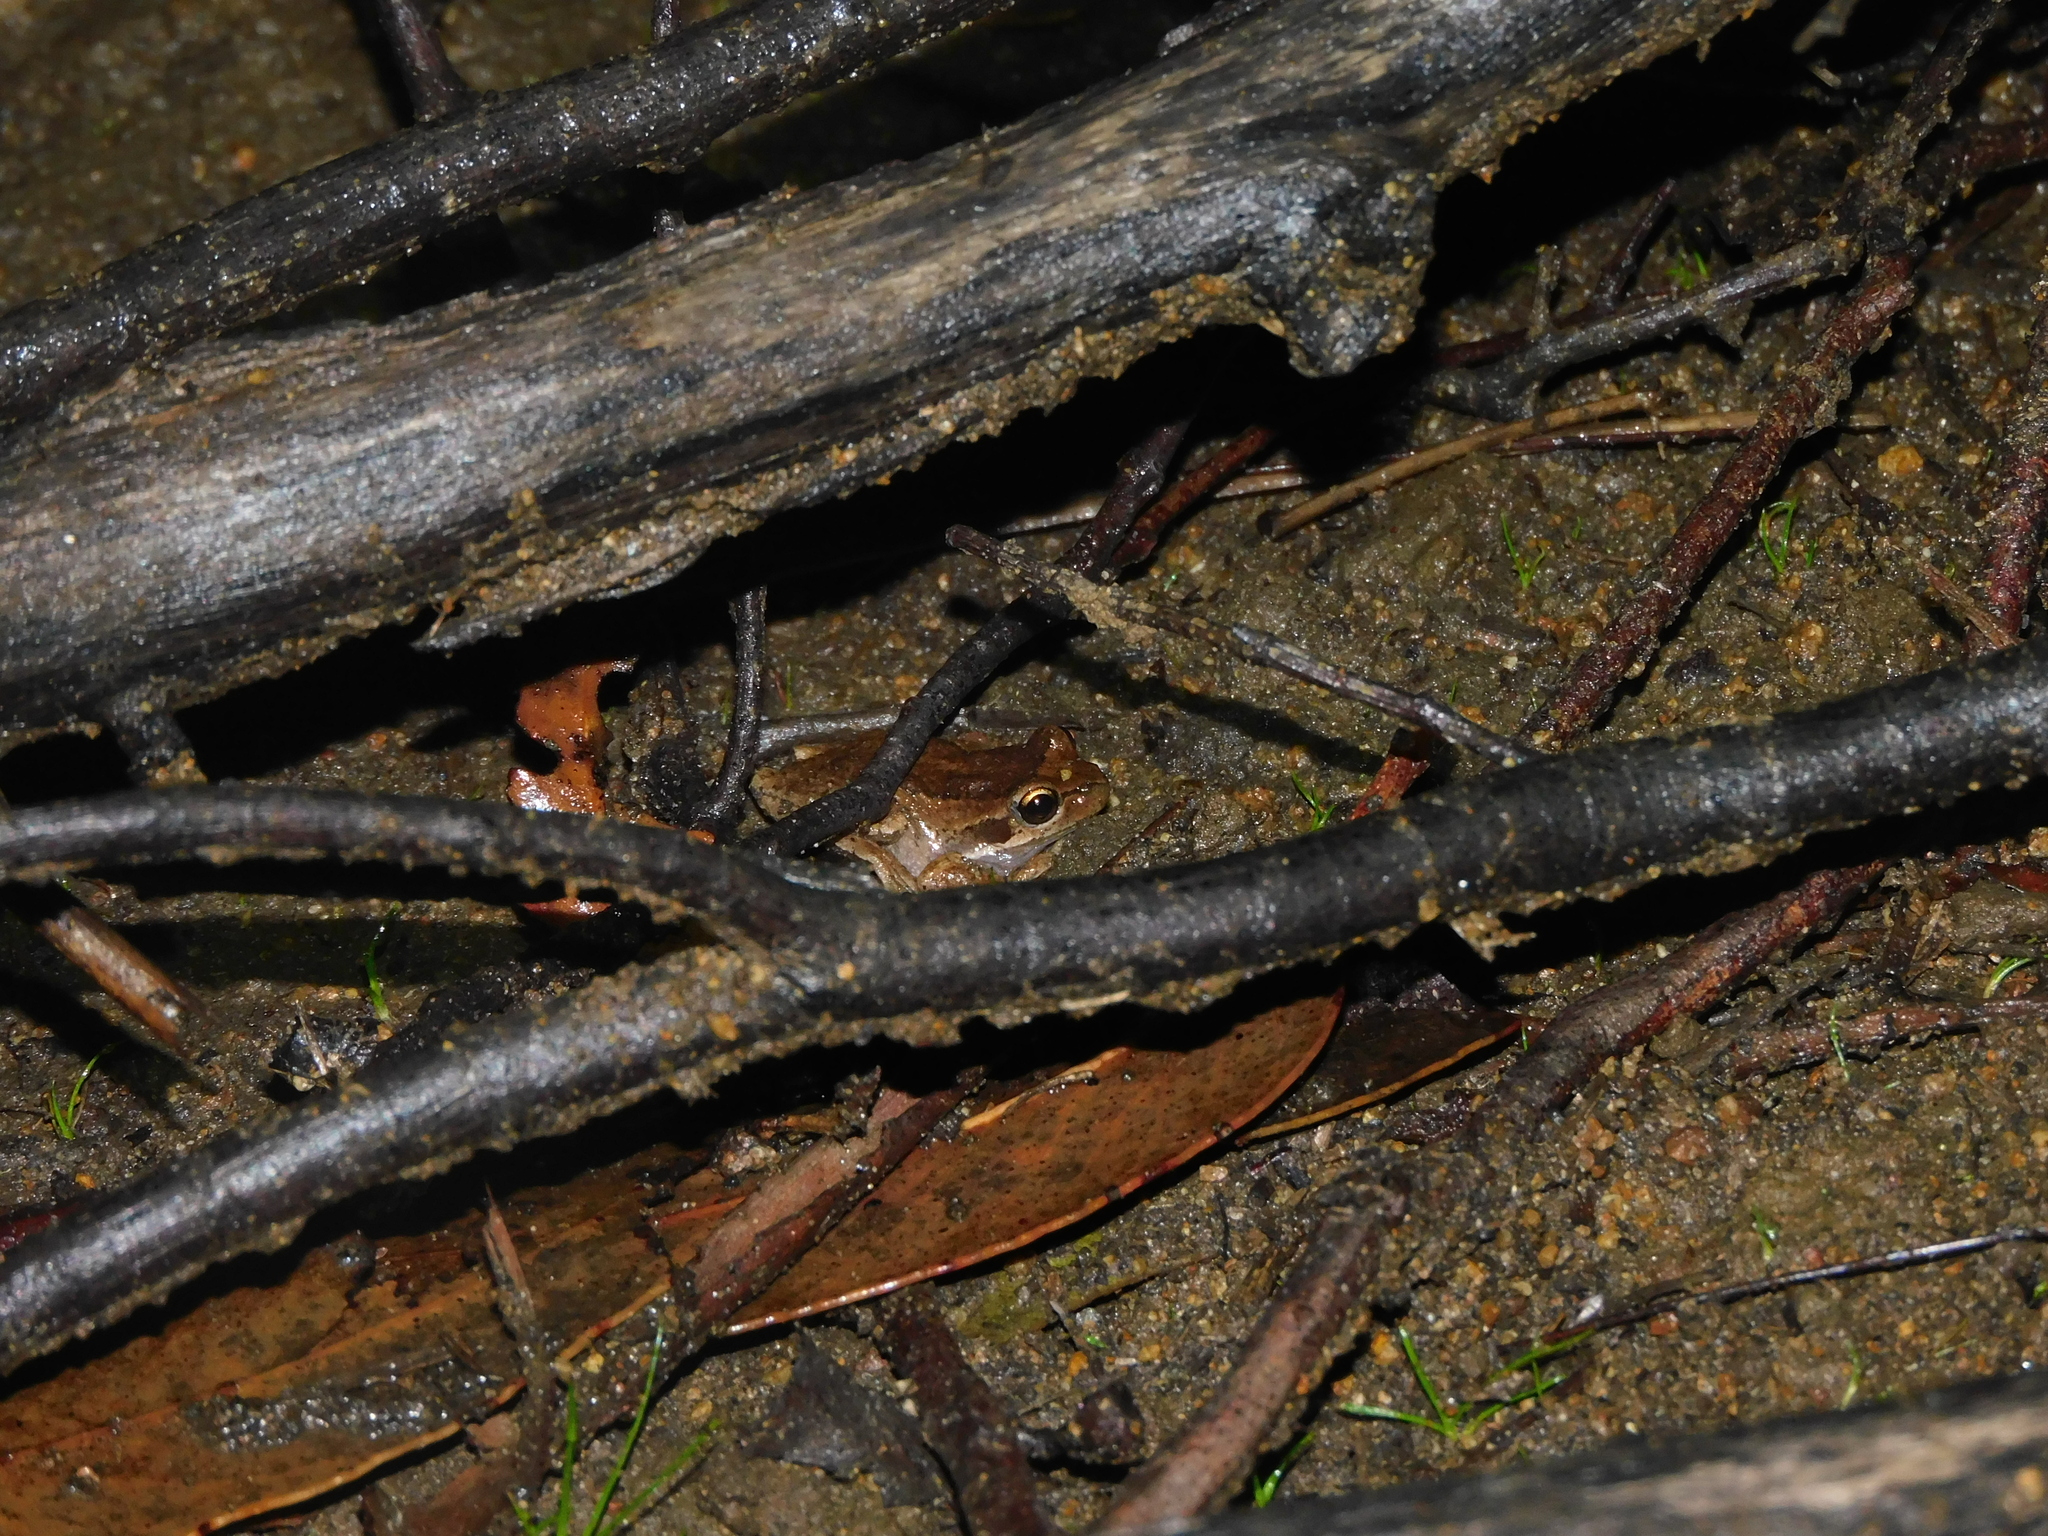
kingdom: Animalia
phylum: Chordata
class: Amphibia
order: Anura
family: Pelodryadidae
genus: Litoria
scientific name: Litoria ewingii
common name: Southern brown tree frog
